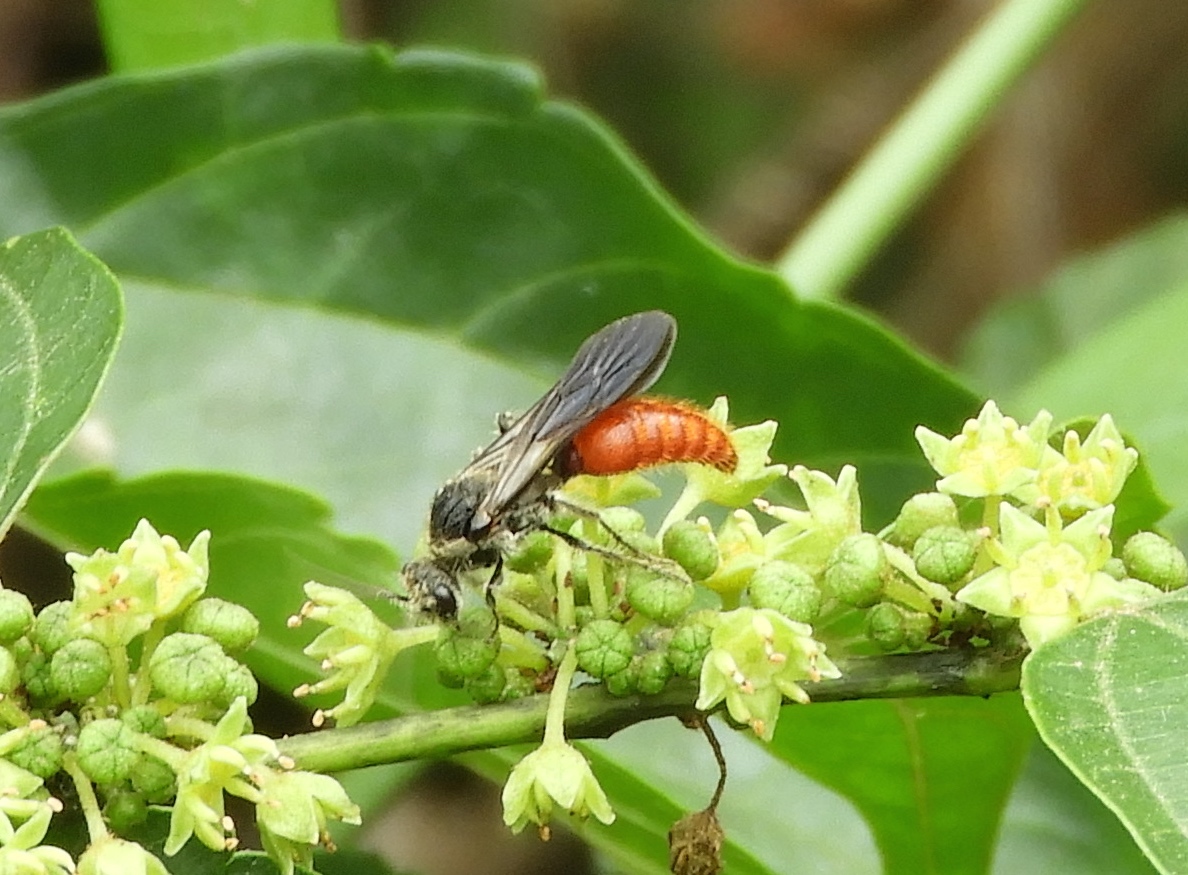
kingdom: Animalia
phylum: Arthropoda
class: Insecta
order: Hymenoptera
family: Mutillidae
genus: Timulla
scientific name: Timulla
